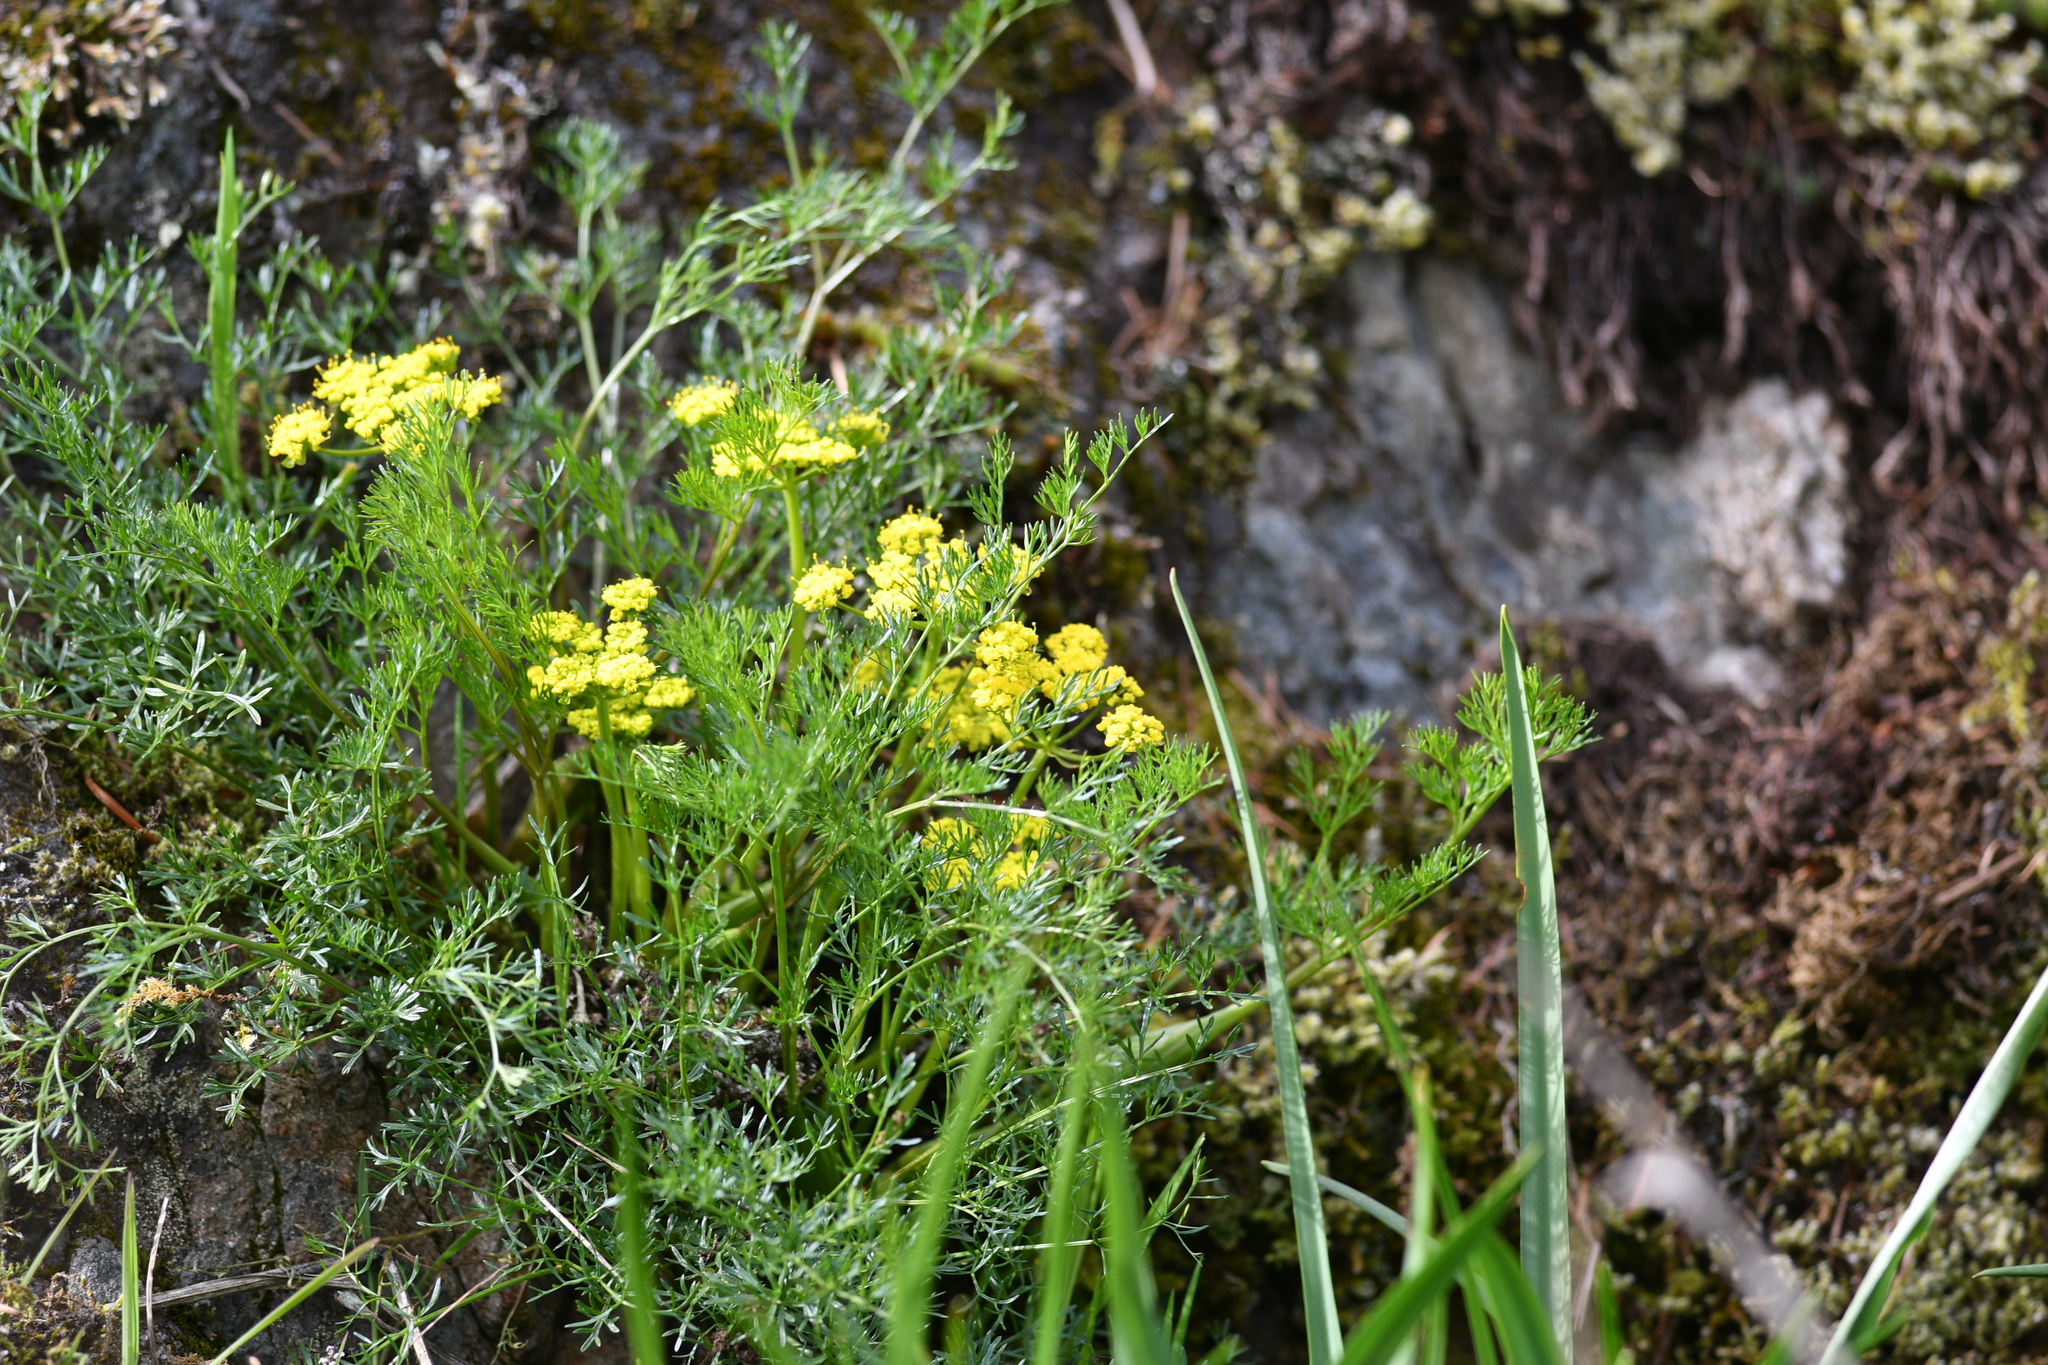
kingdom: Plantae
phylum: Tracheophyta
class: Magnoliopsida
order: Apiales
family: Apiaceae
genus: Lomatium
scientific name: Lomatium utriculatum
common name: Fine-leaf desert-parsley
